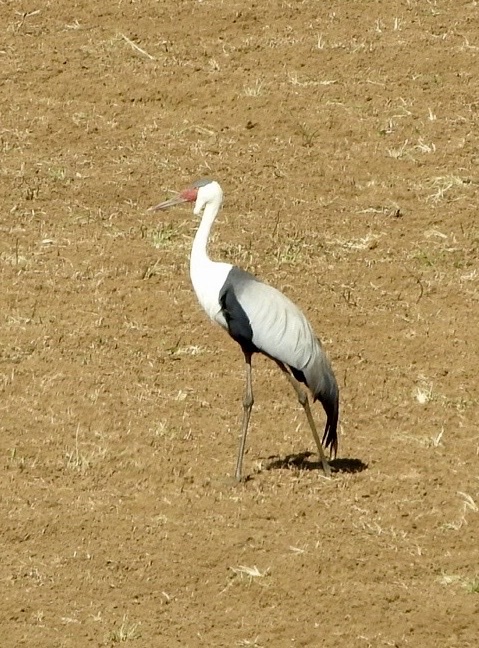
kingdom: Animalia
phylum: Chordata
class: Aves
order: Gruiformes
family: Gruidae
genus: Bugeranus
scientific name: Bugeranus carunculatus
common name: Wattled crane
